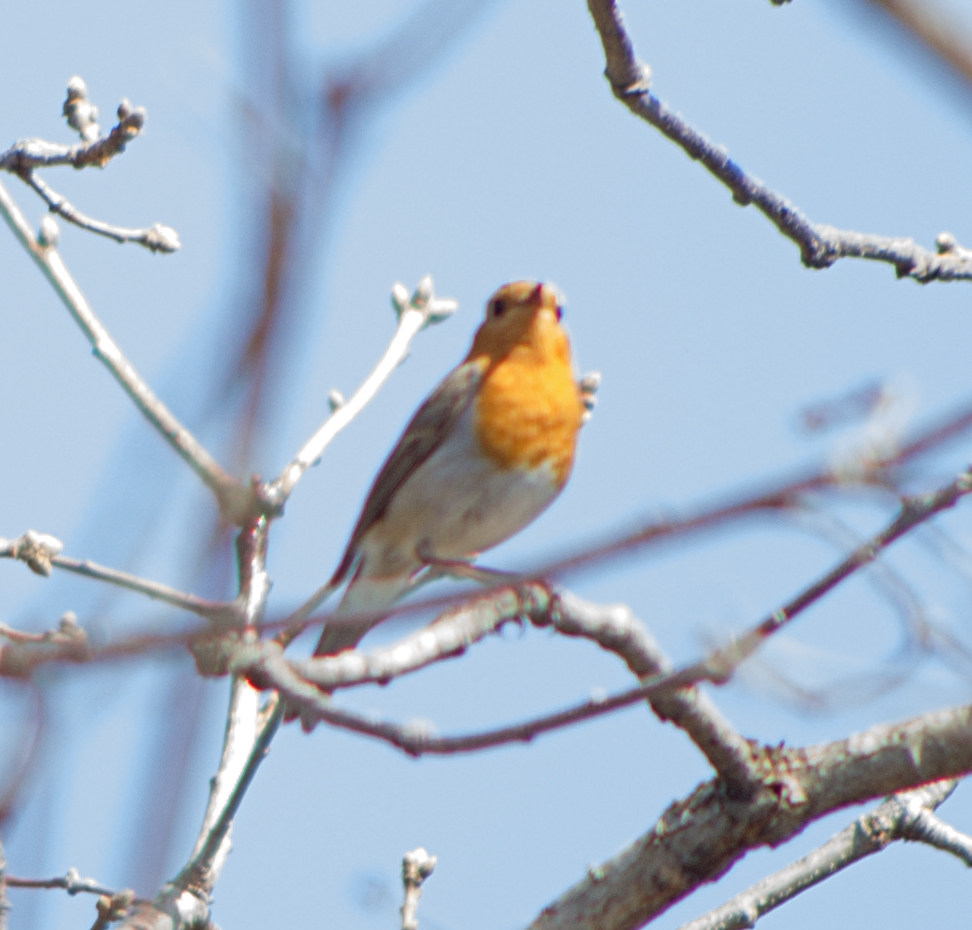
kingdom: Animalia
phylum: Chordata
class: Aves
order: Passeriformes
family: Muscicapidae
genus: Erithacus
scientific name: Erithacus rubecula
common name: European robin
